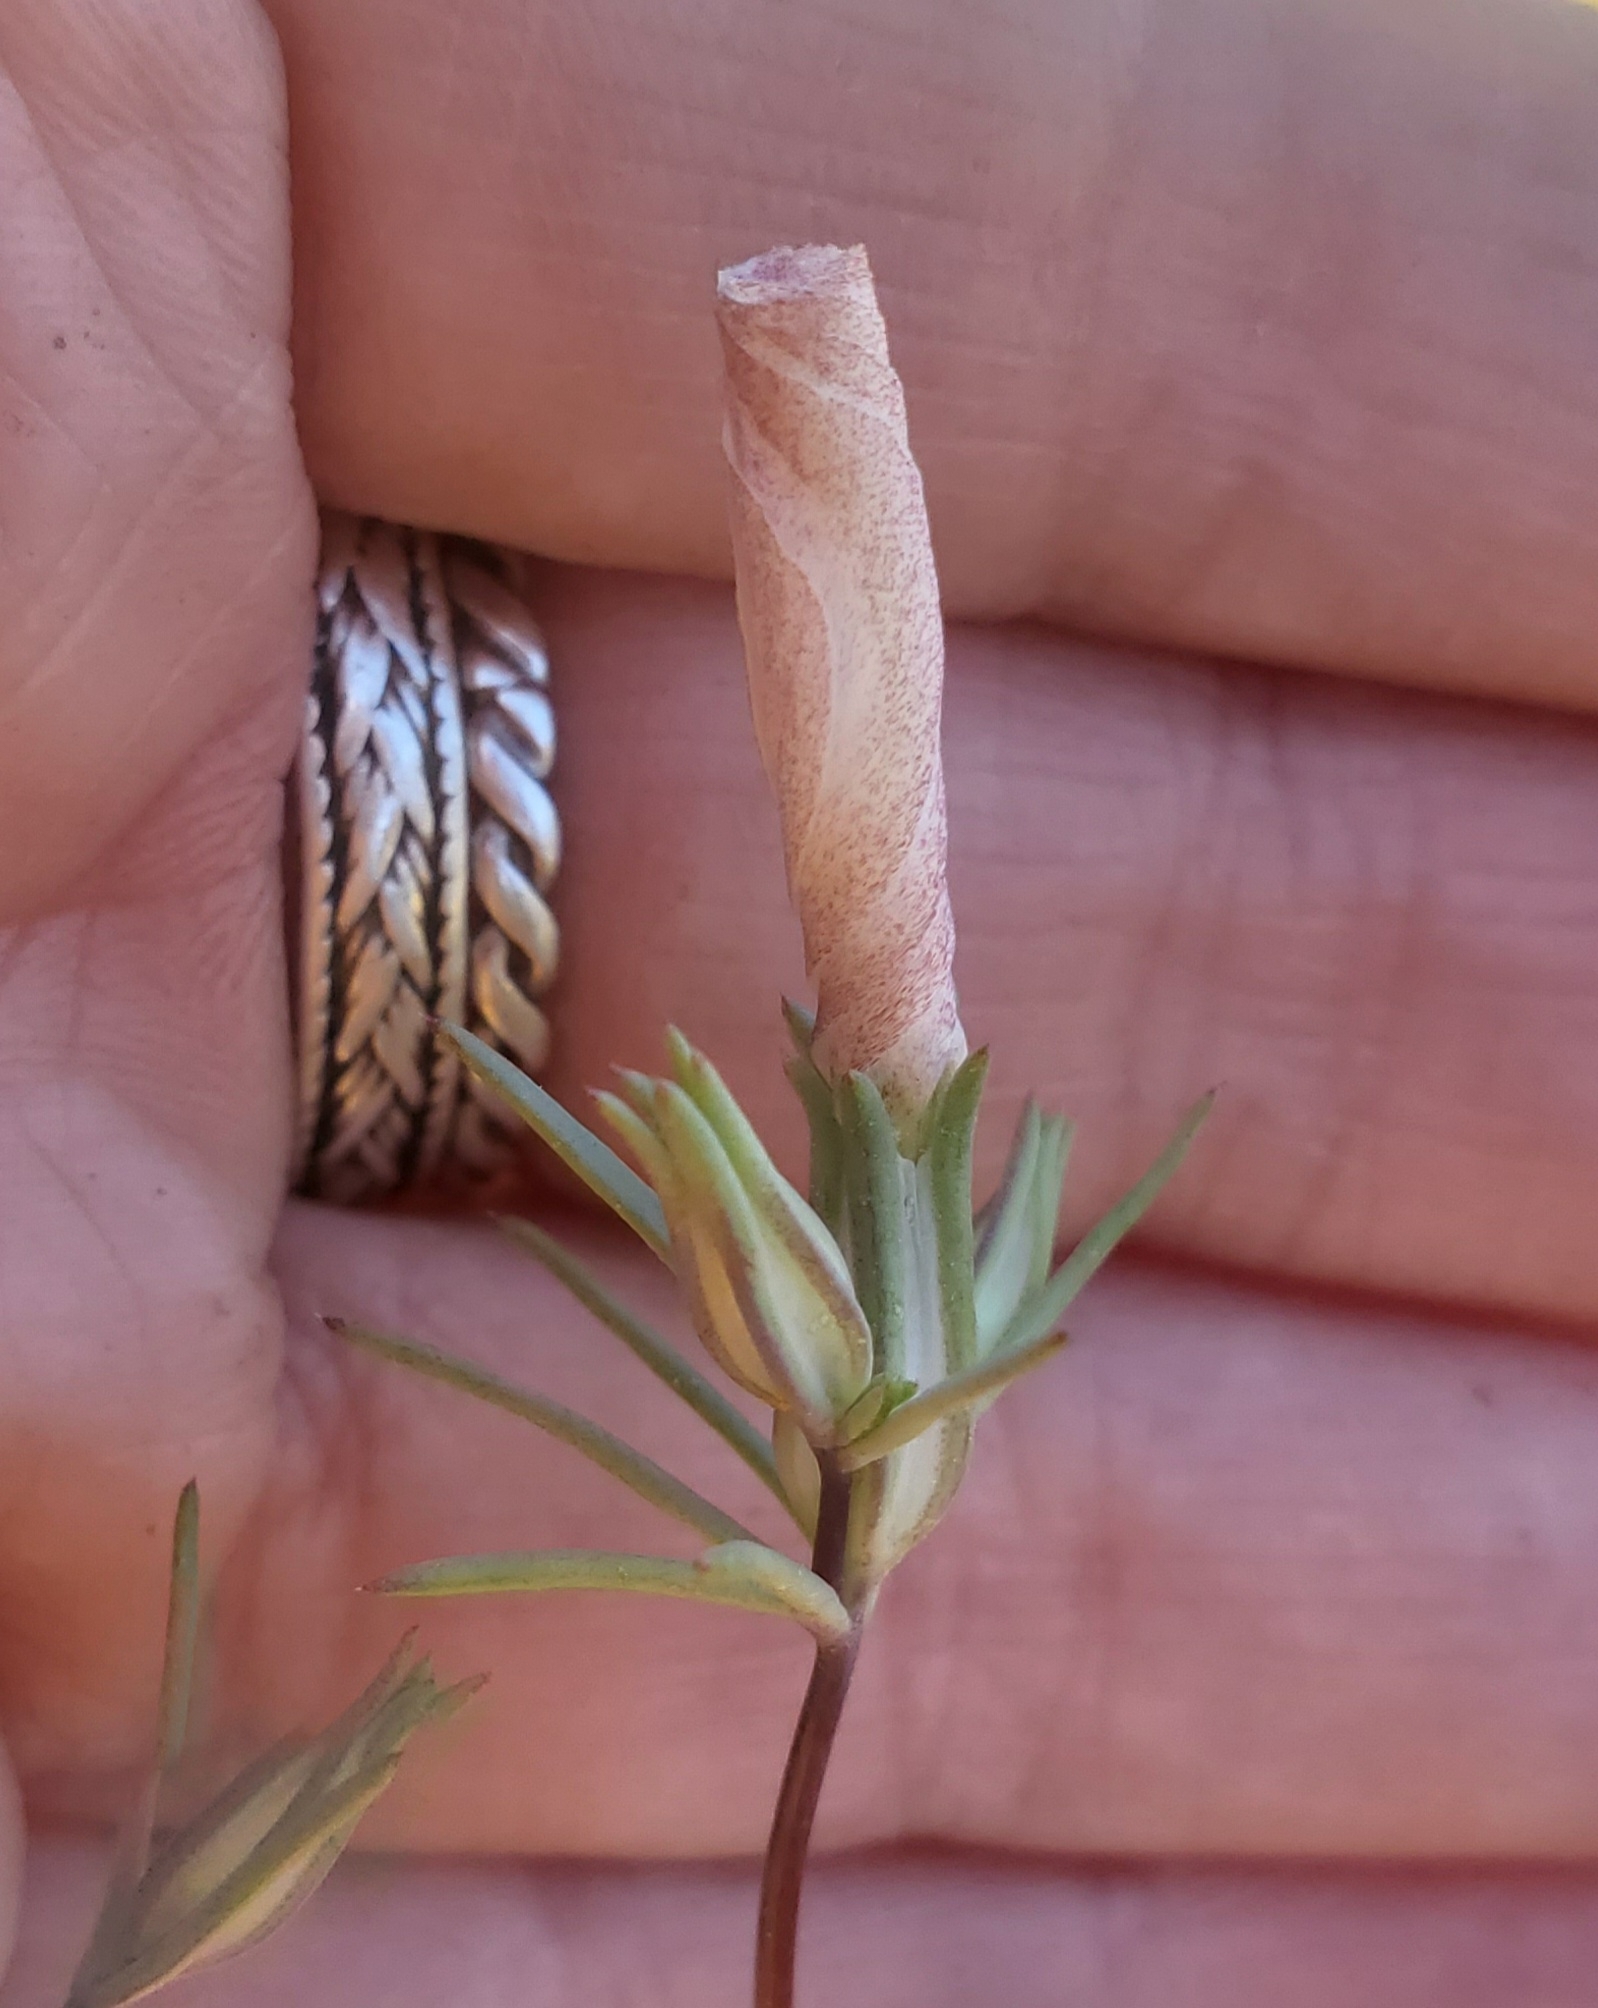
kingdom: Plantae
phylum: Tracheophyta
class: Magnoliopsida
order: Ericales
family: Polemoniaceae
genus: Linanthus
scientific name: Linanthus dichotomus
